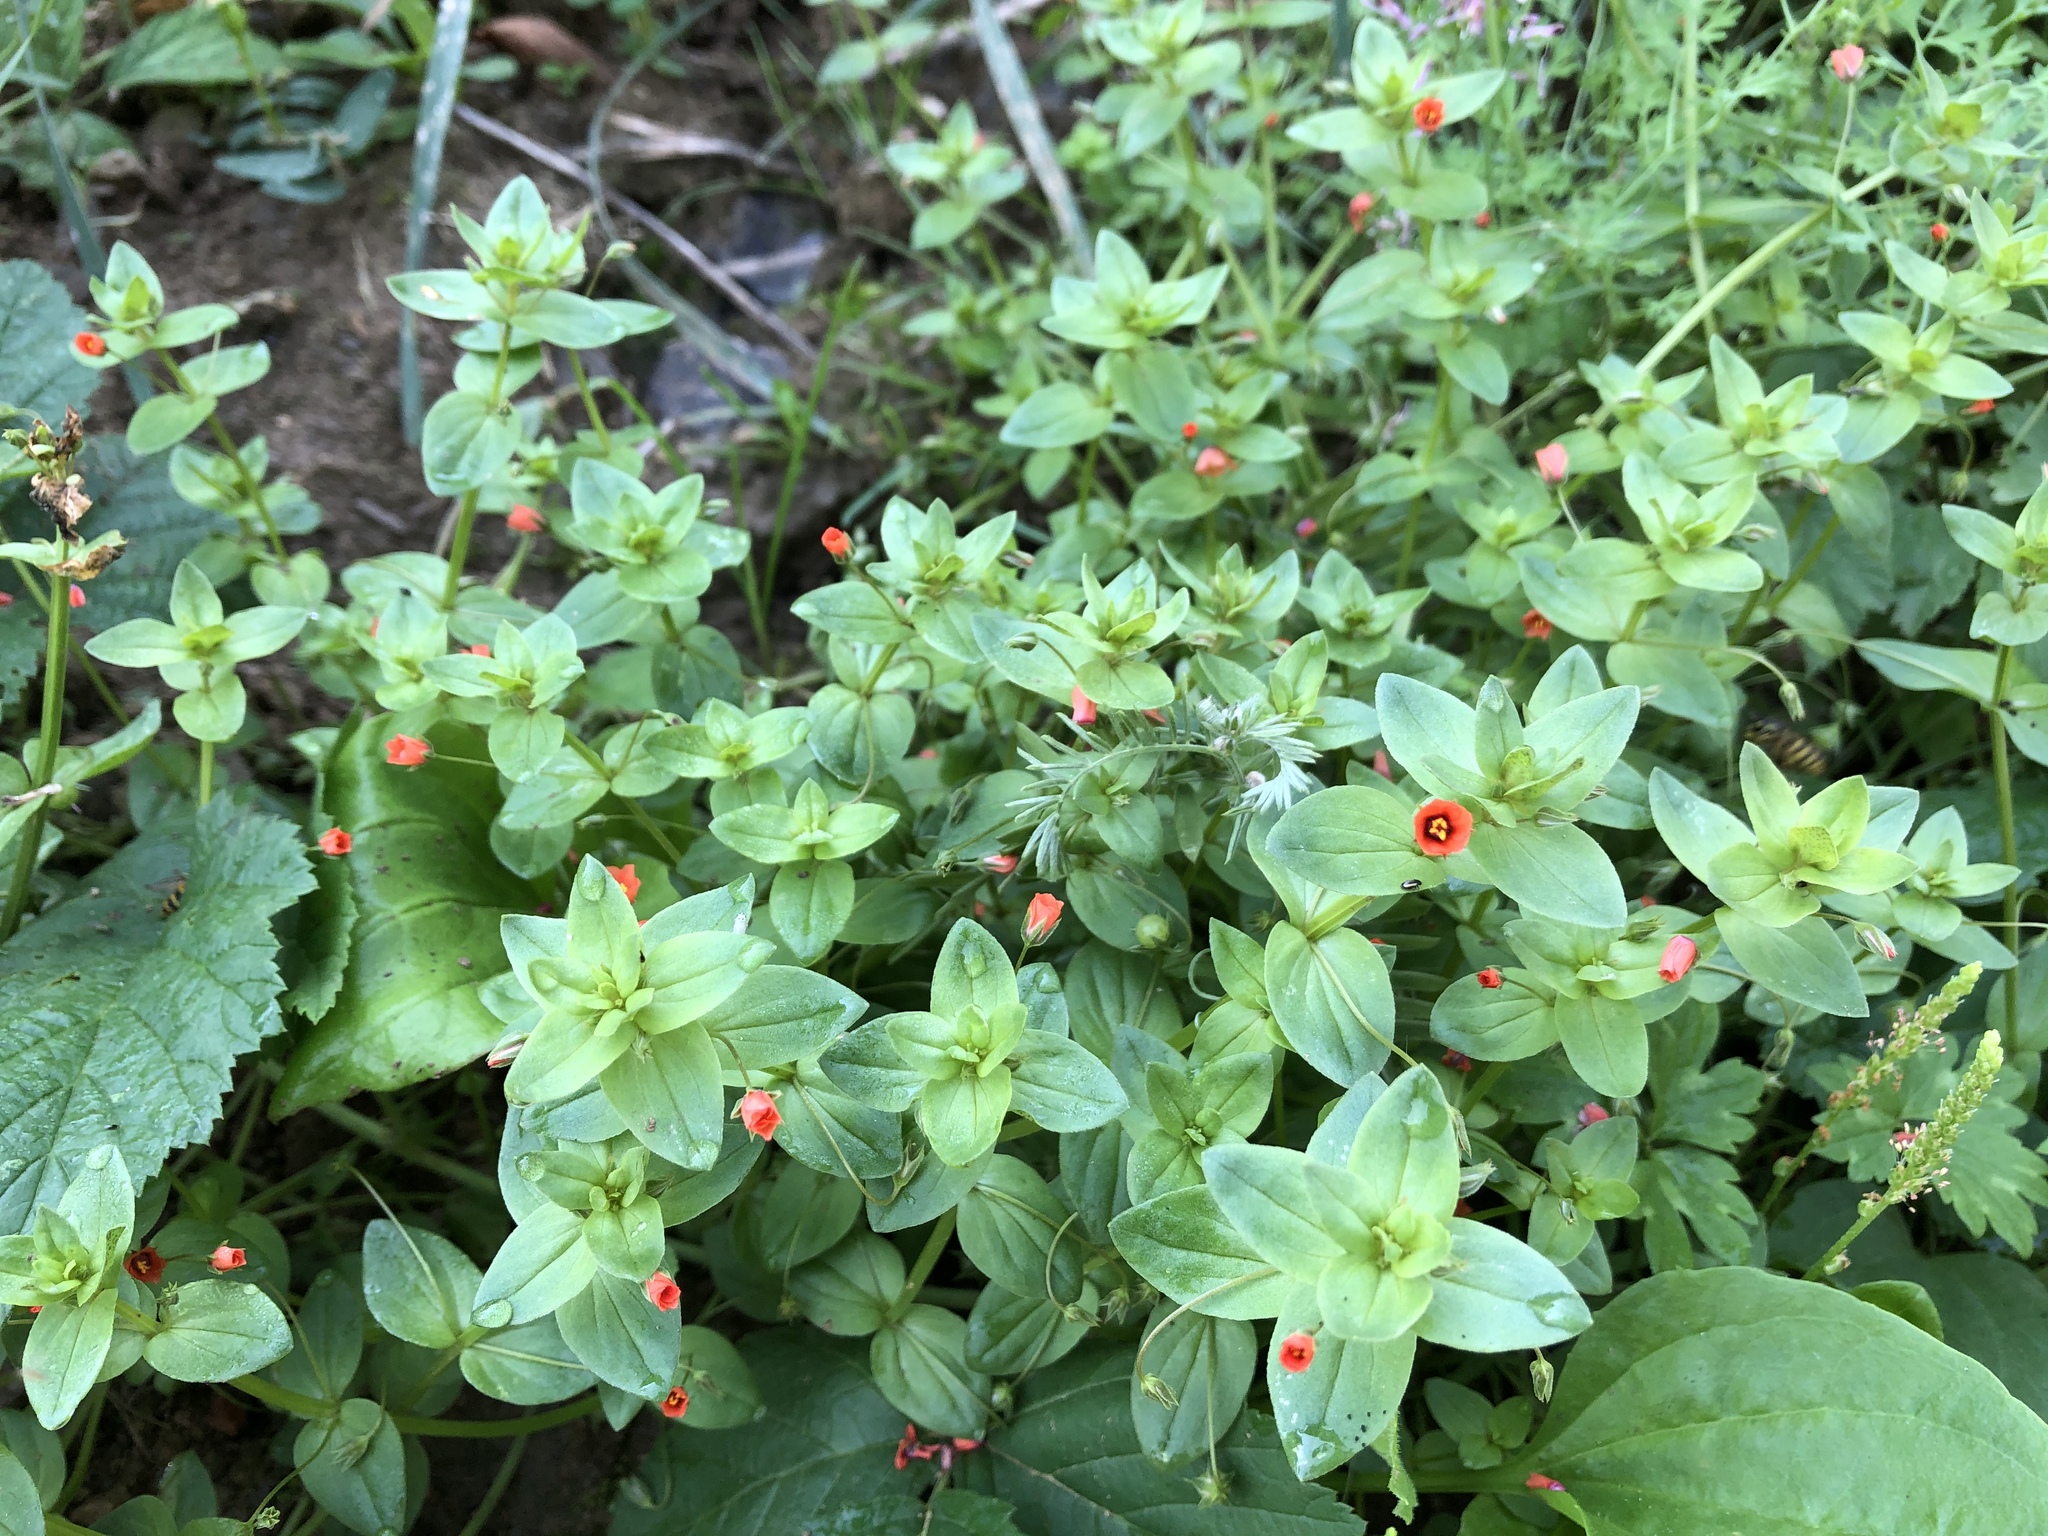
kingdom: Plantae
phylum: Tracheophyta
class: Magnoliopsida
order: Ericales
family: Primulaceae
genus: Lysimachia
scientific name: Lysimachia arvensis
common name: Scarlet pimpernel
